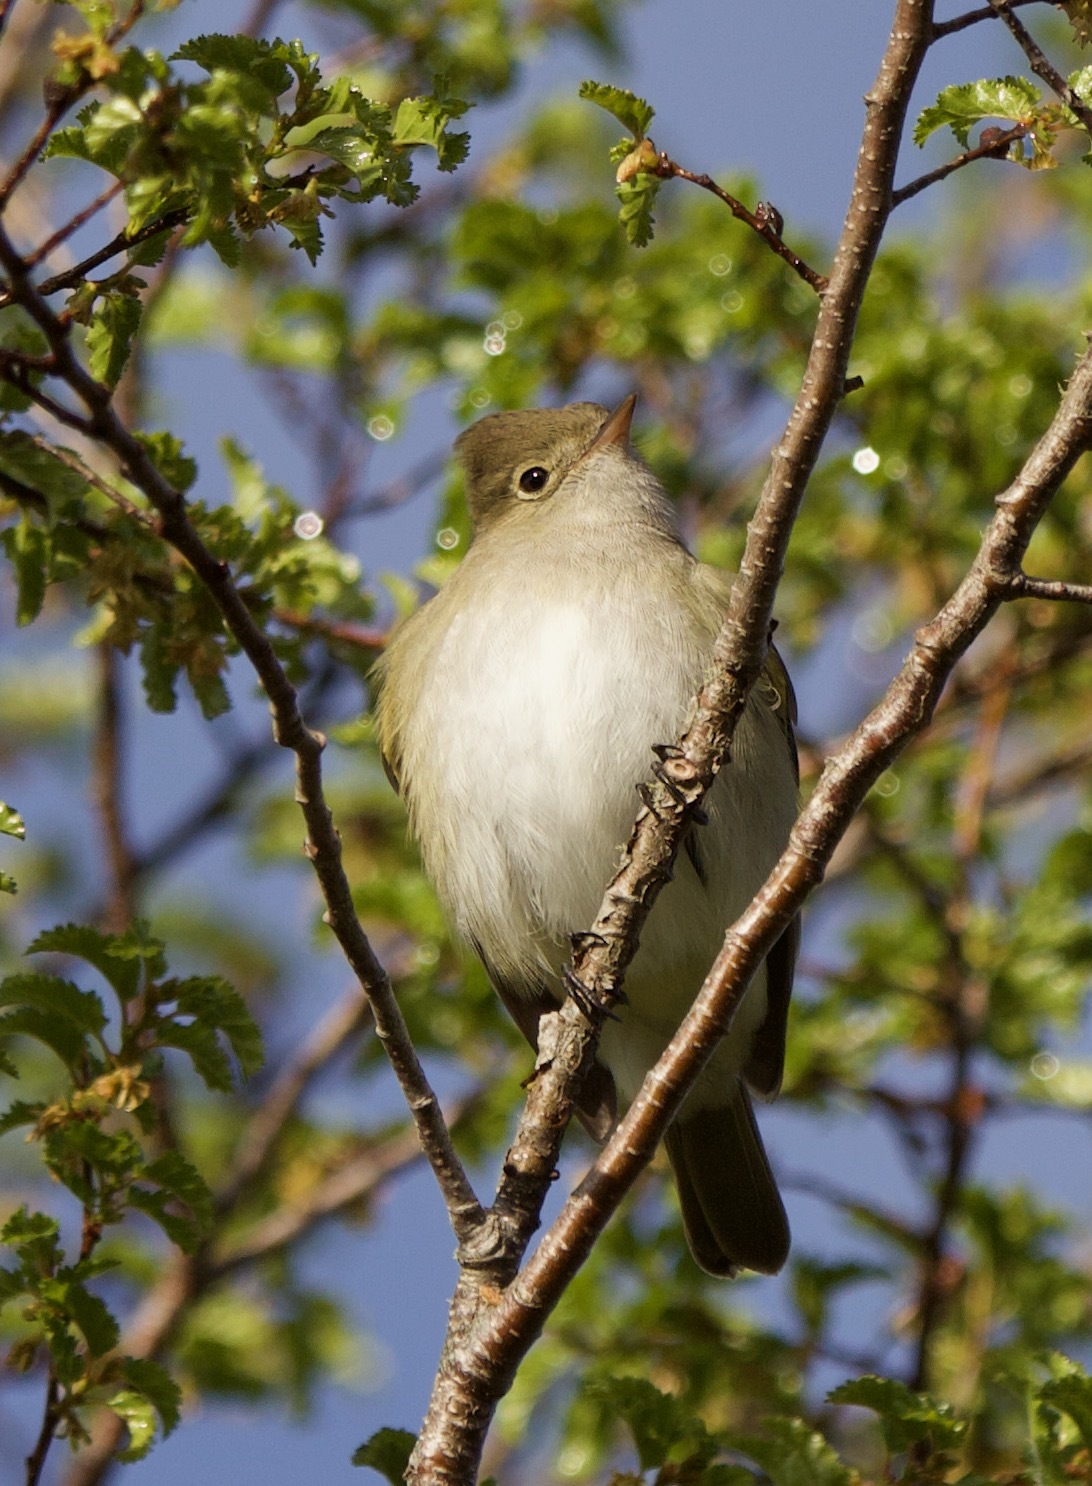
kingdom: Animalia
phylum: Chordata
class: Aves
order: Passeriformes
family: Tyrannidae
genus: Elaenia
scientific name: Elaenia albiceps
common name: White-crested elaenia
